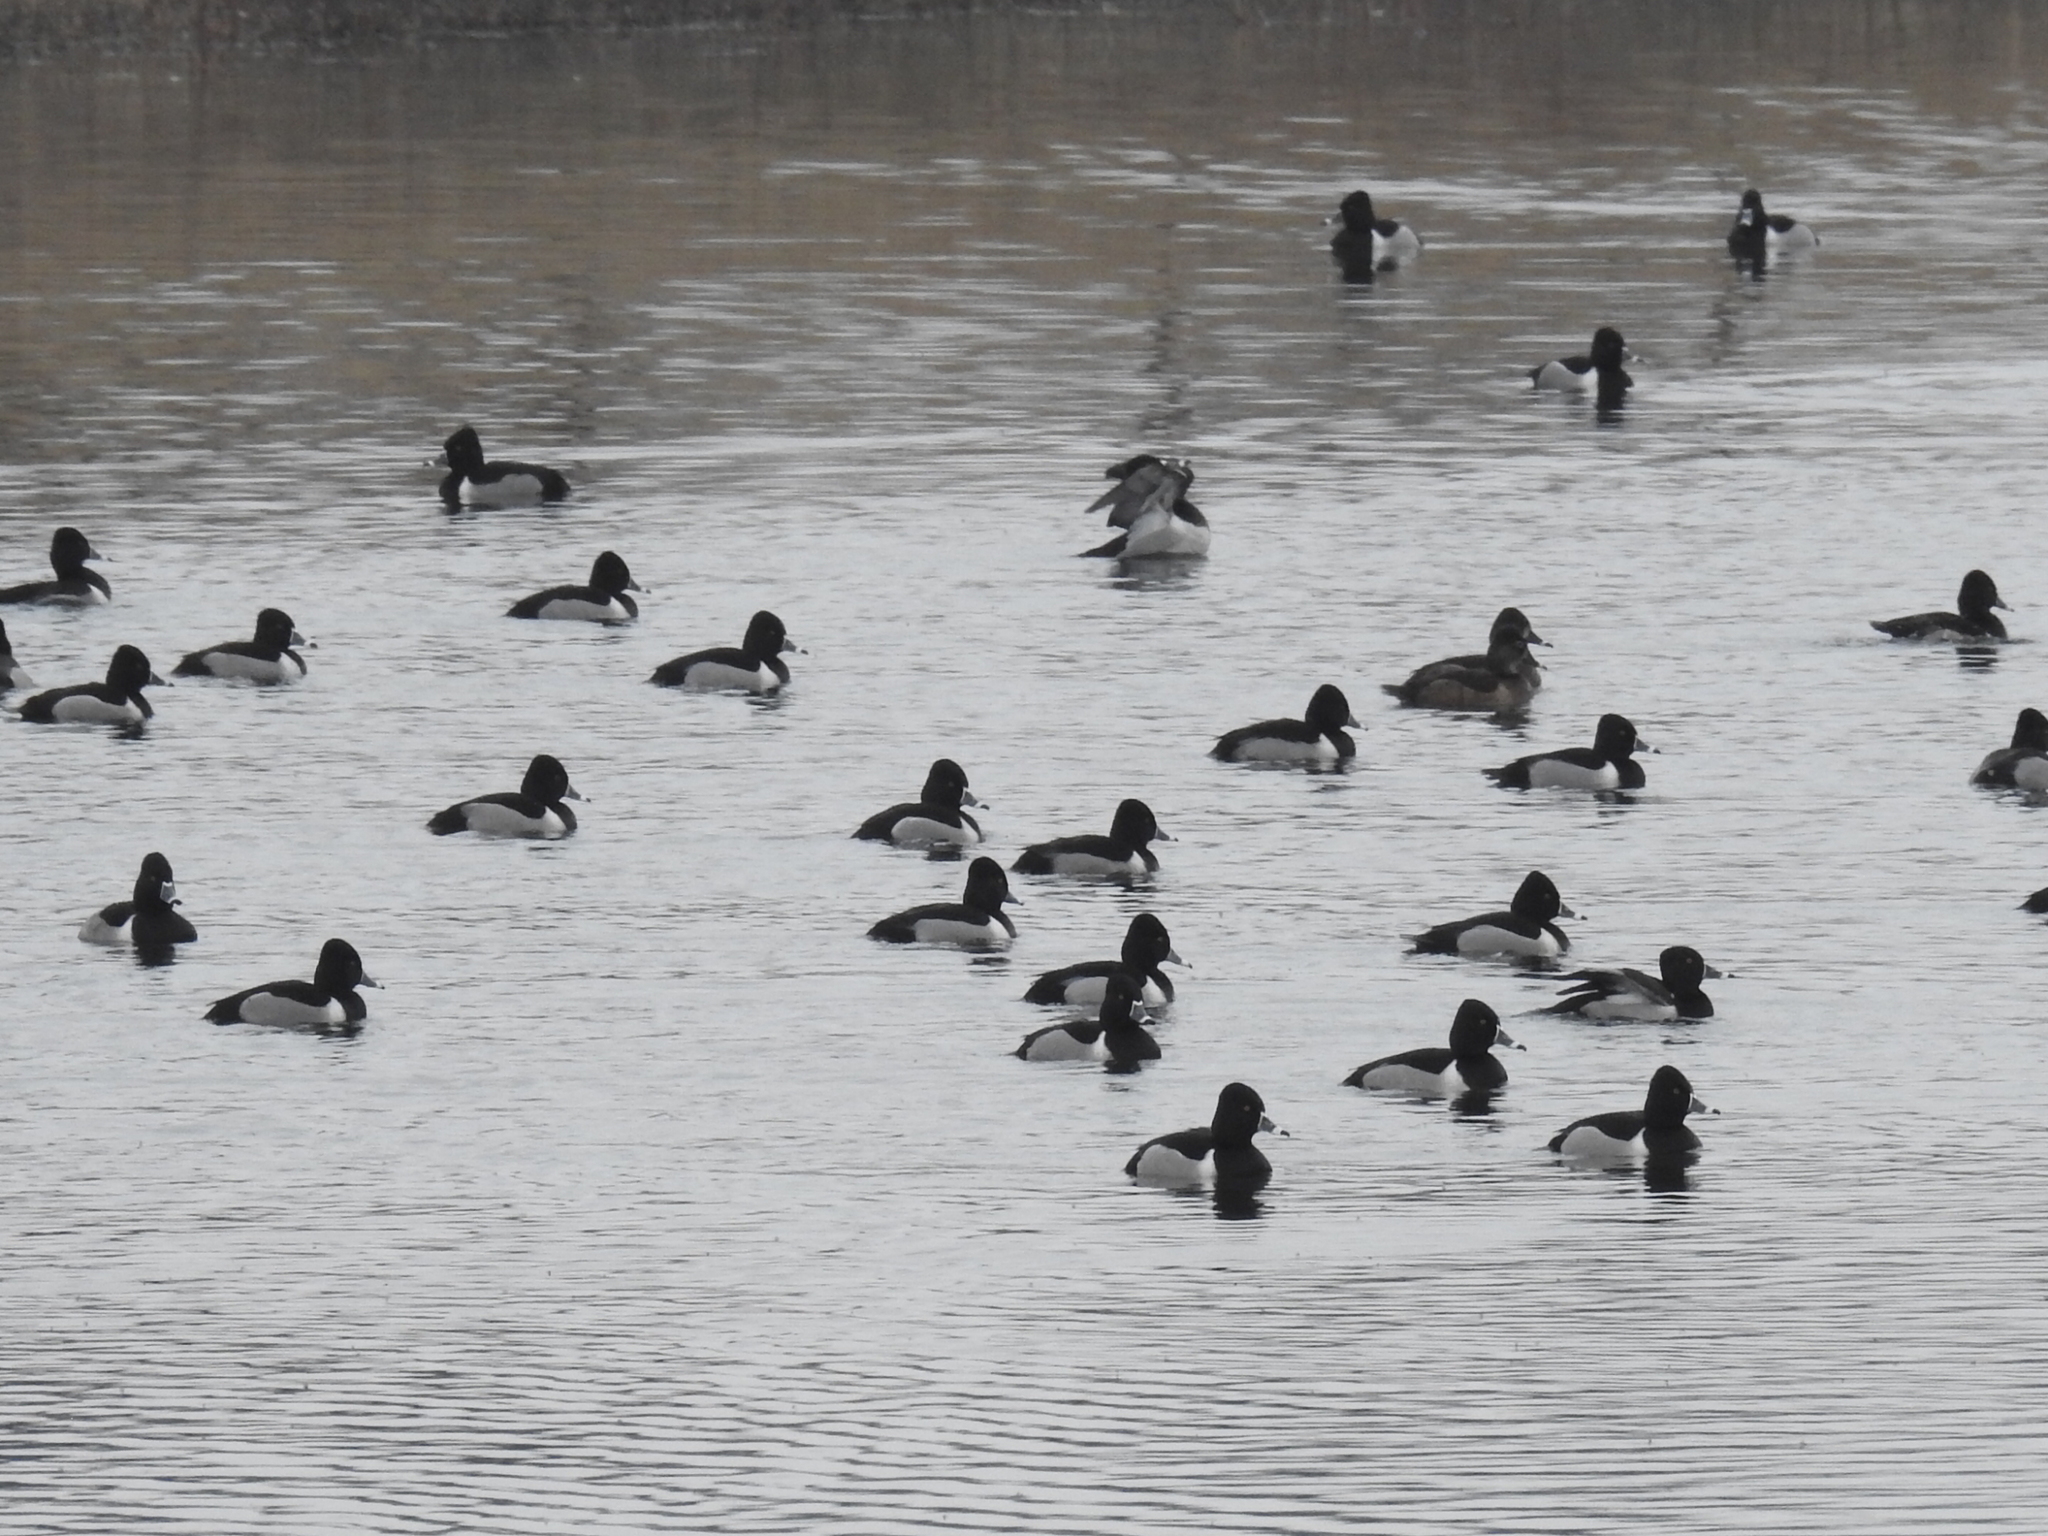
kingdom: Animalia
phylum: Chordata
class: Aves
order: Anseriformes
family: Anatidae
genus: Aythya
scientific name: Aythya collaris
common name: Ring-necked duck
